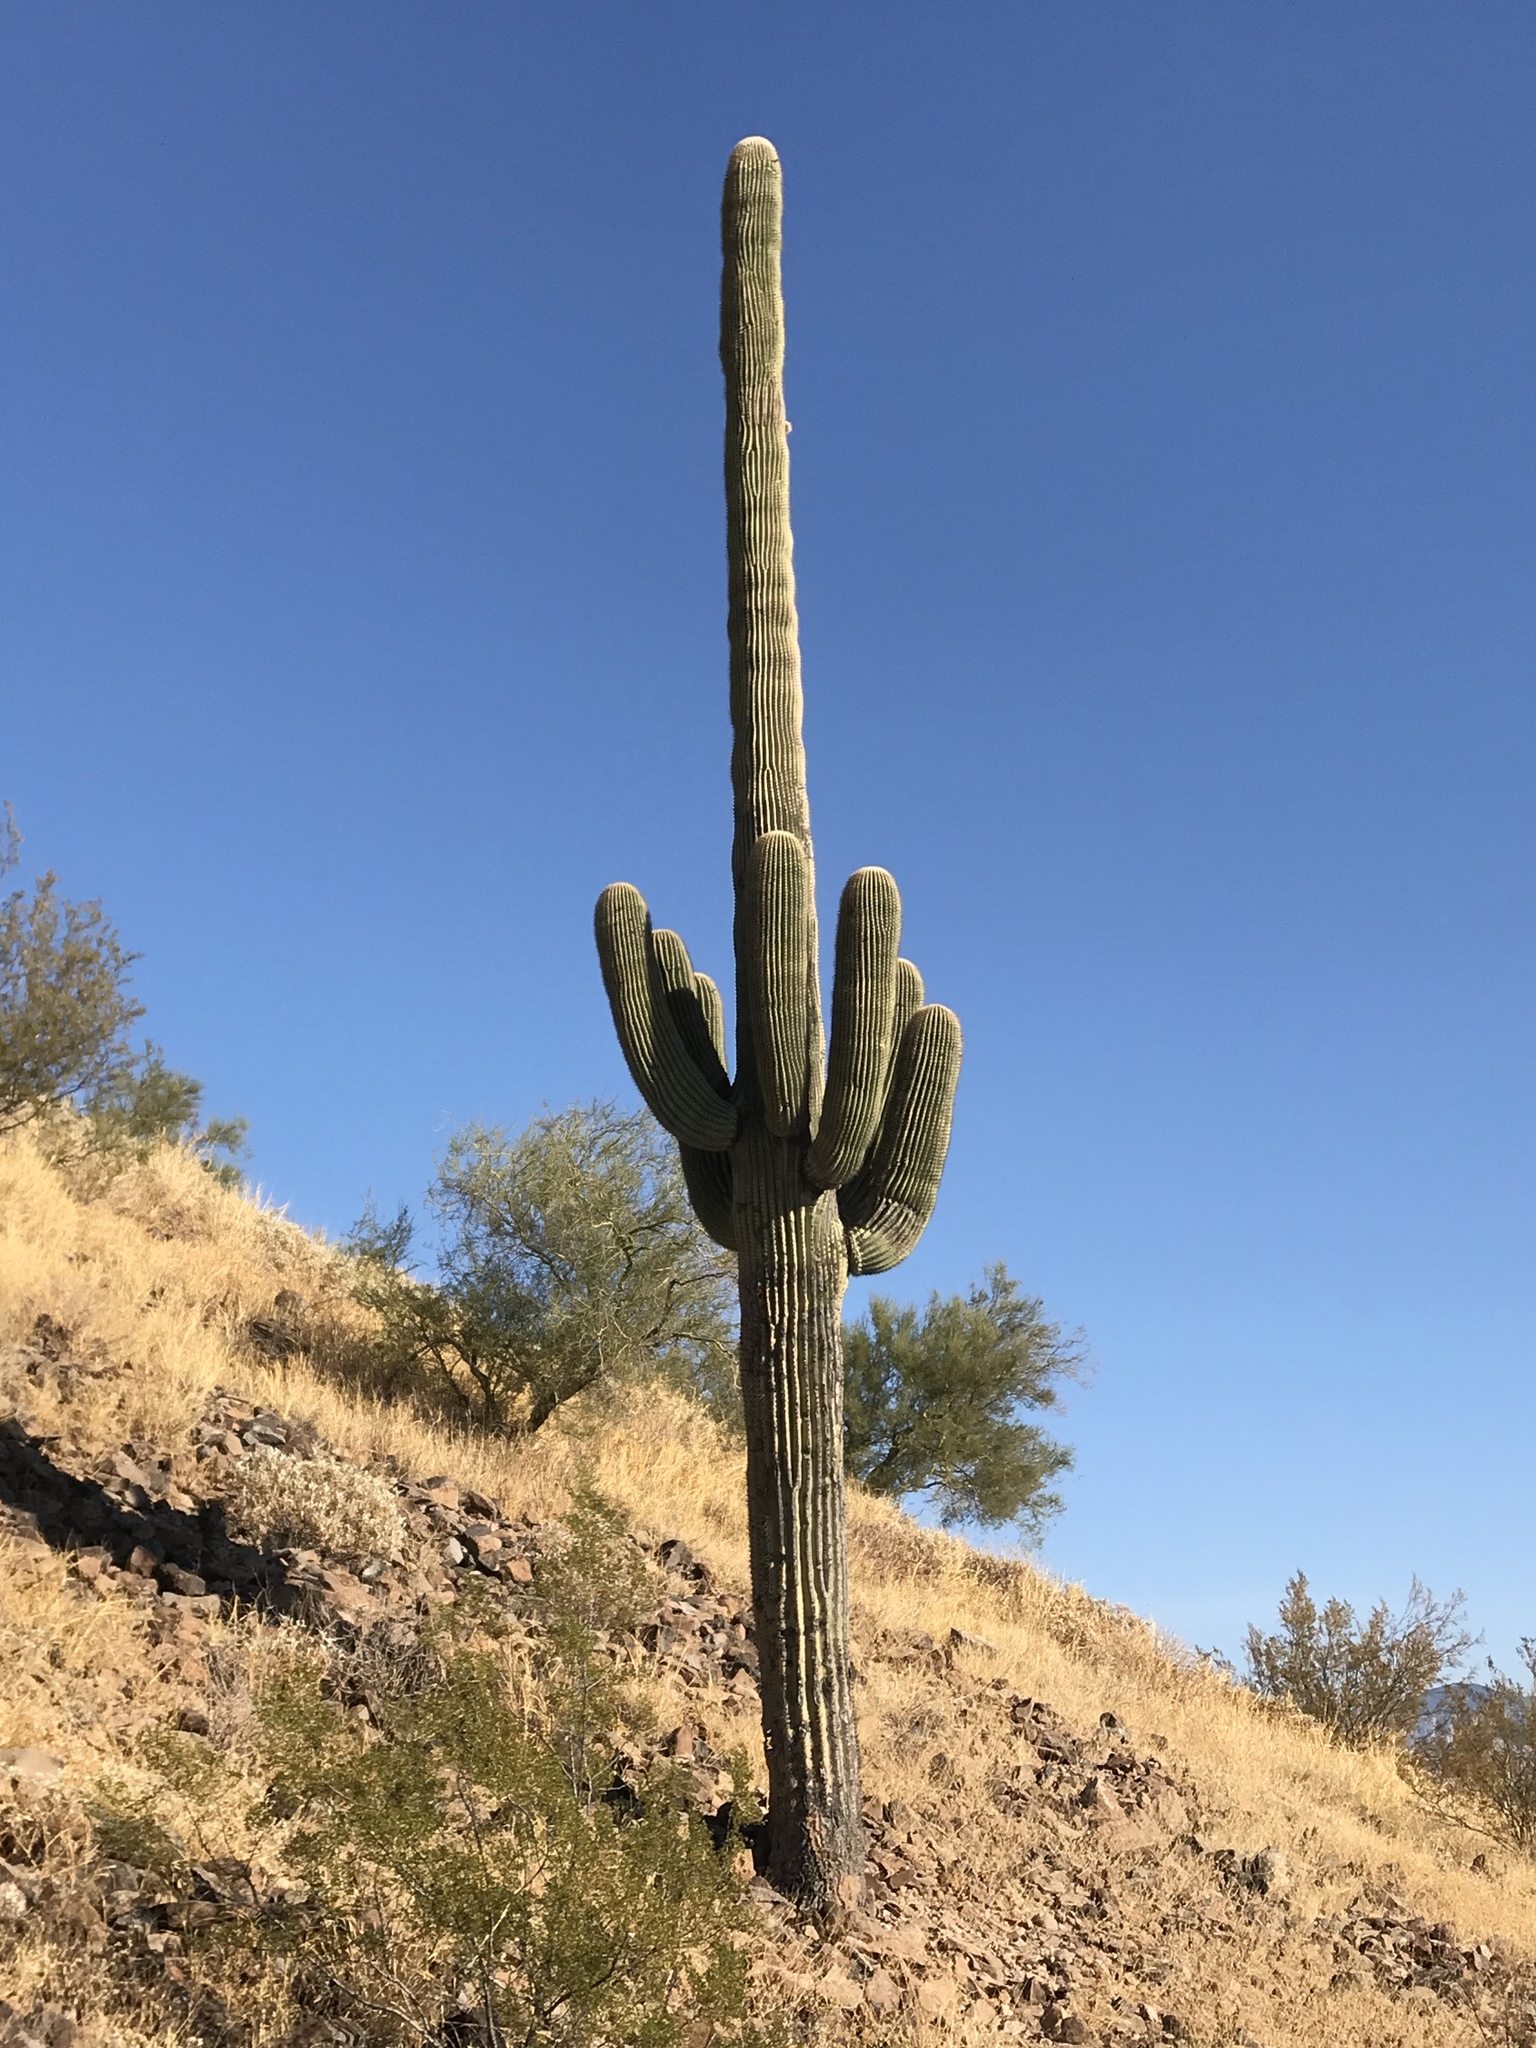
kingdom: Plantae
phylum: Tracheophyta
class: Magnoliopsida
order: Caryophyllales
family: Cactaceae
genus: Carnegiea
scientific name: Carnegiea gigantea
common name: Saguaro
